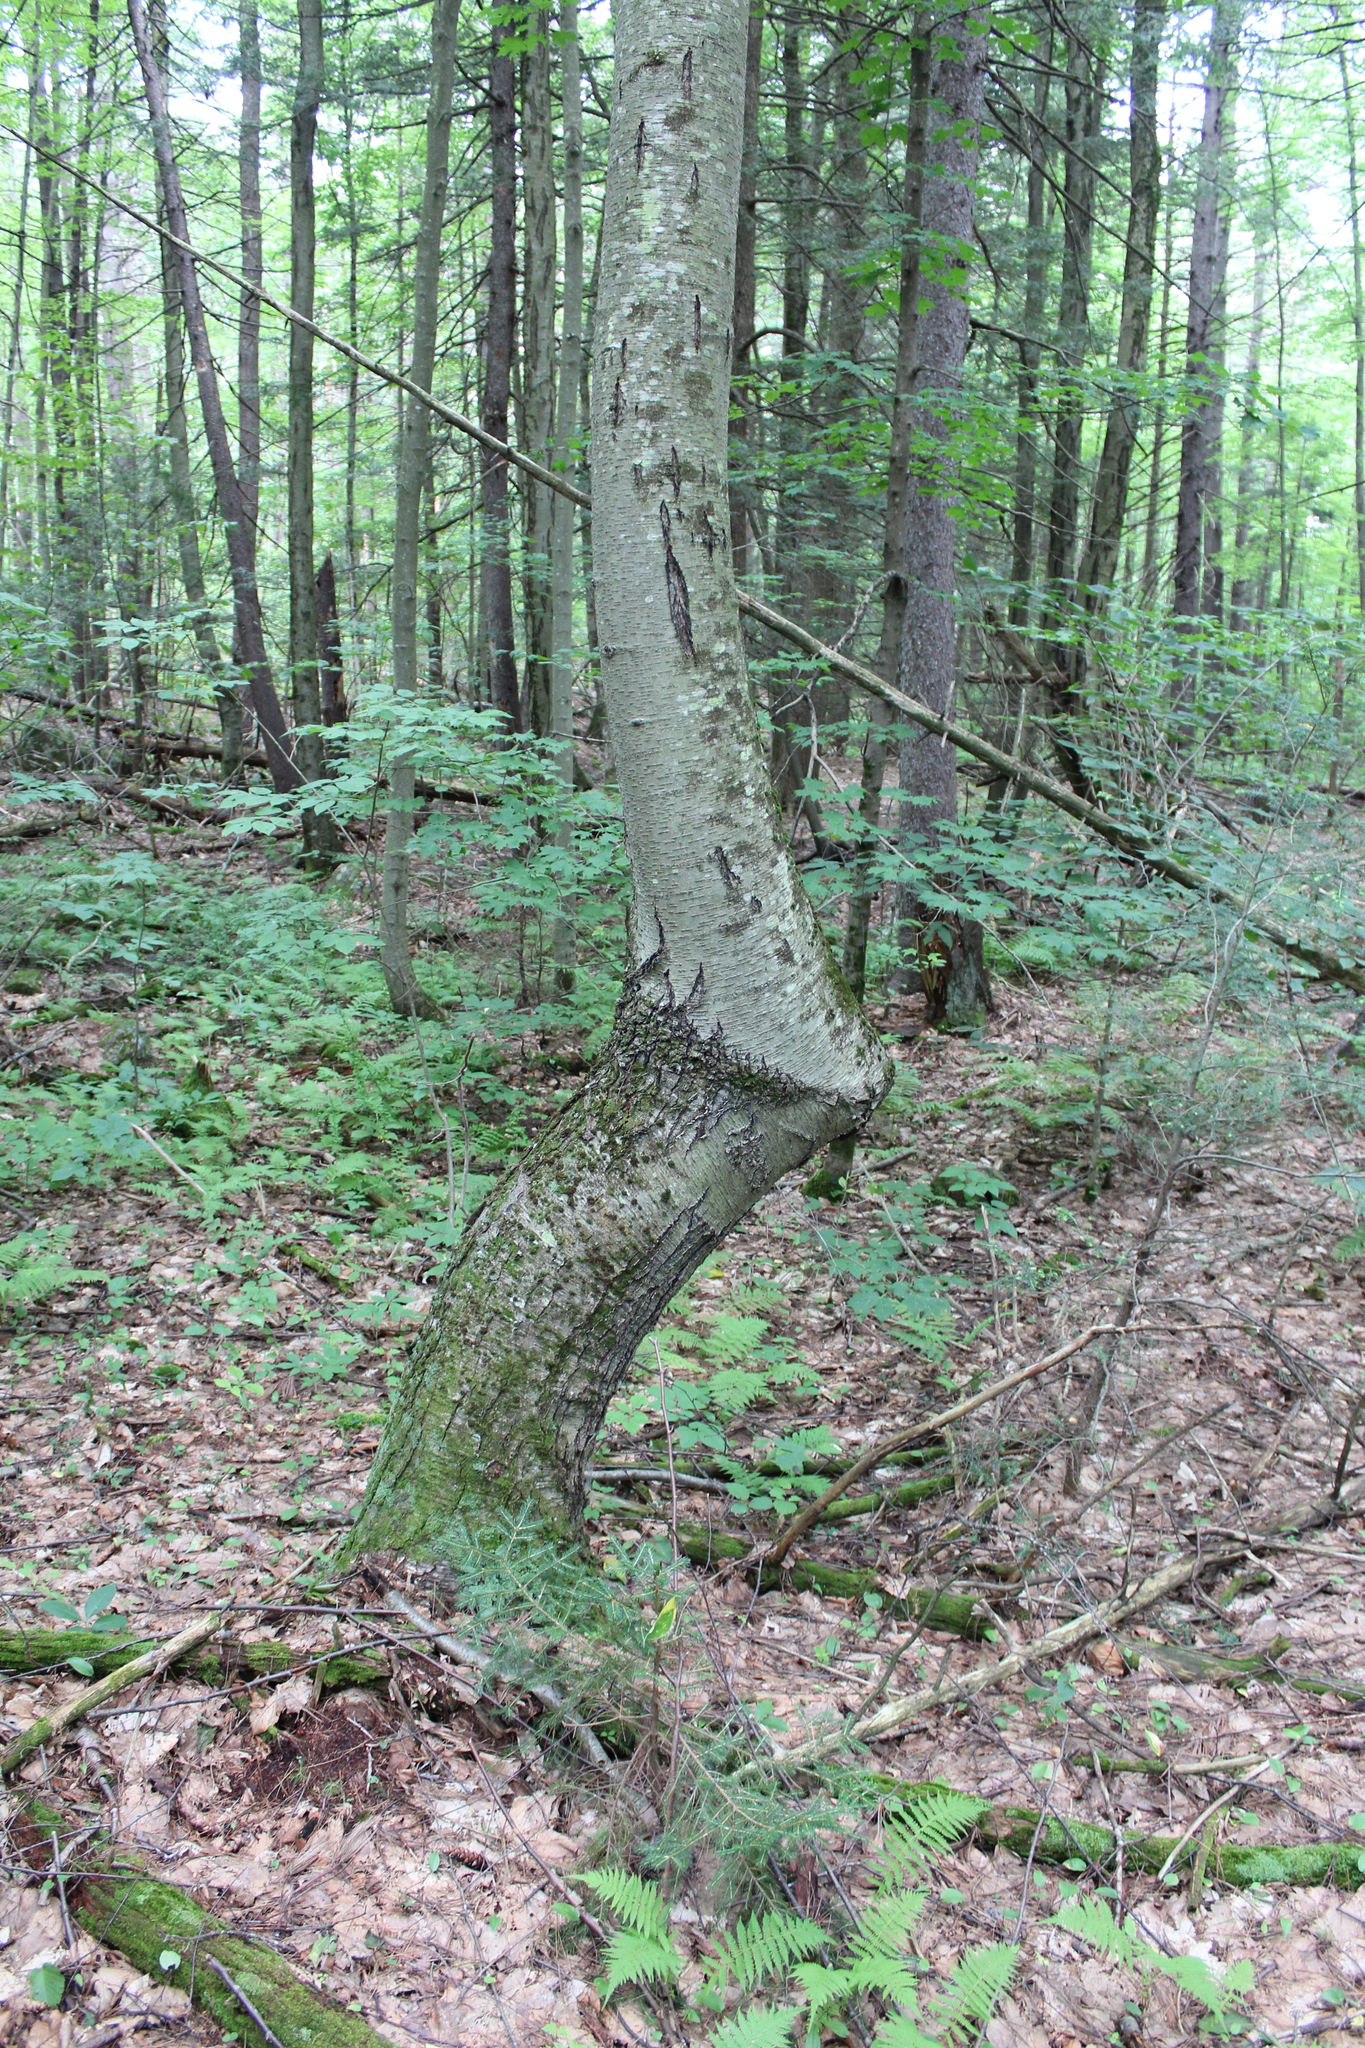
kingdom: Plantae
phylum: Tracheophyta
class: Magnoliopsida
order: Fagales
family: Betulaceae
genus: Betula
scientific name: Betula lenta
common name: Black birch
